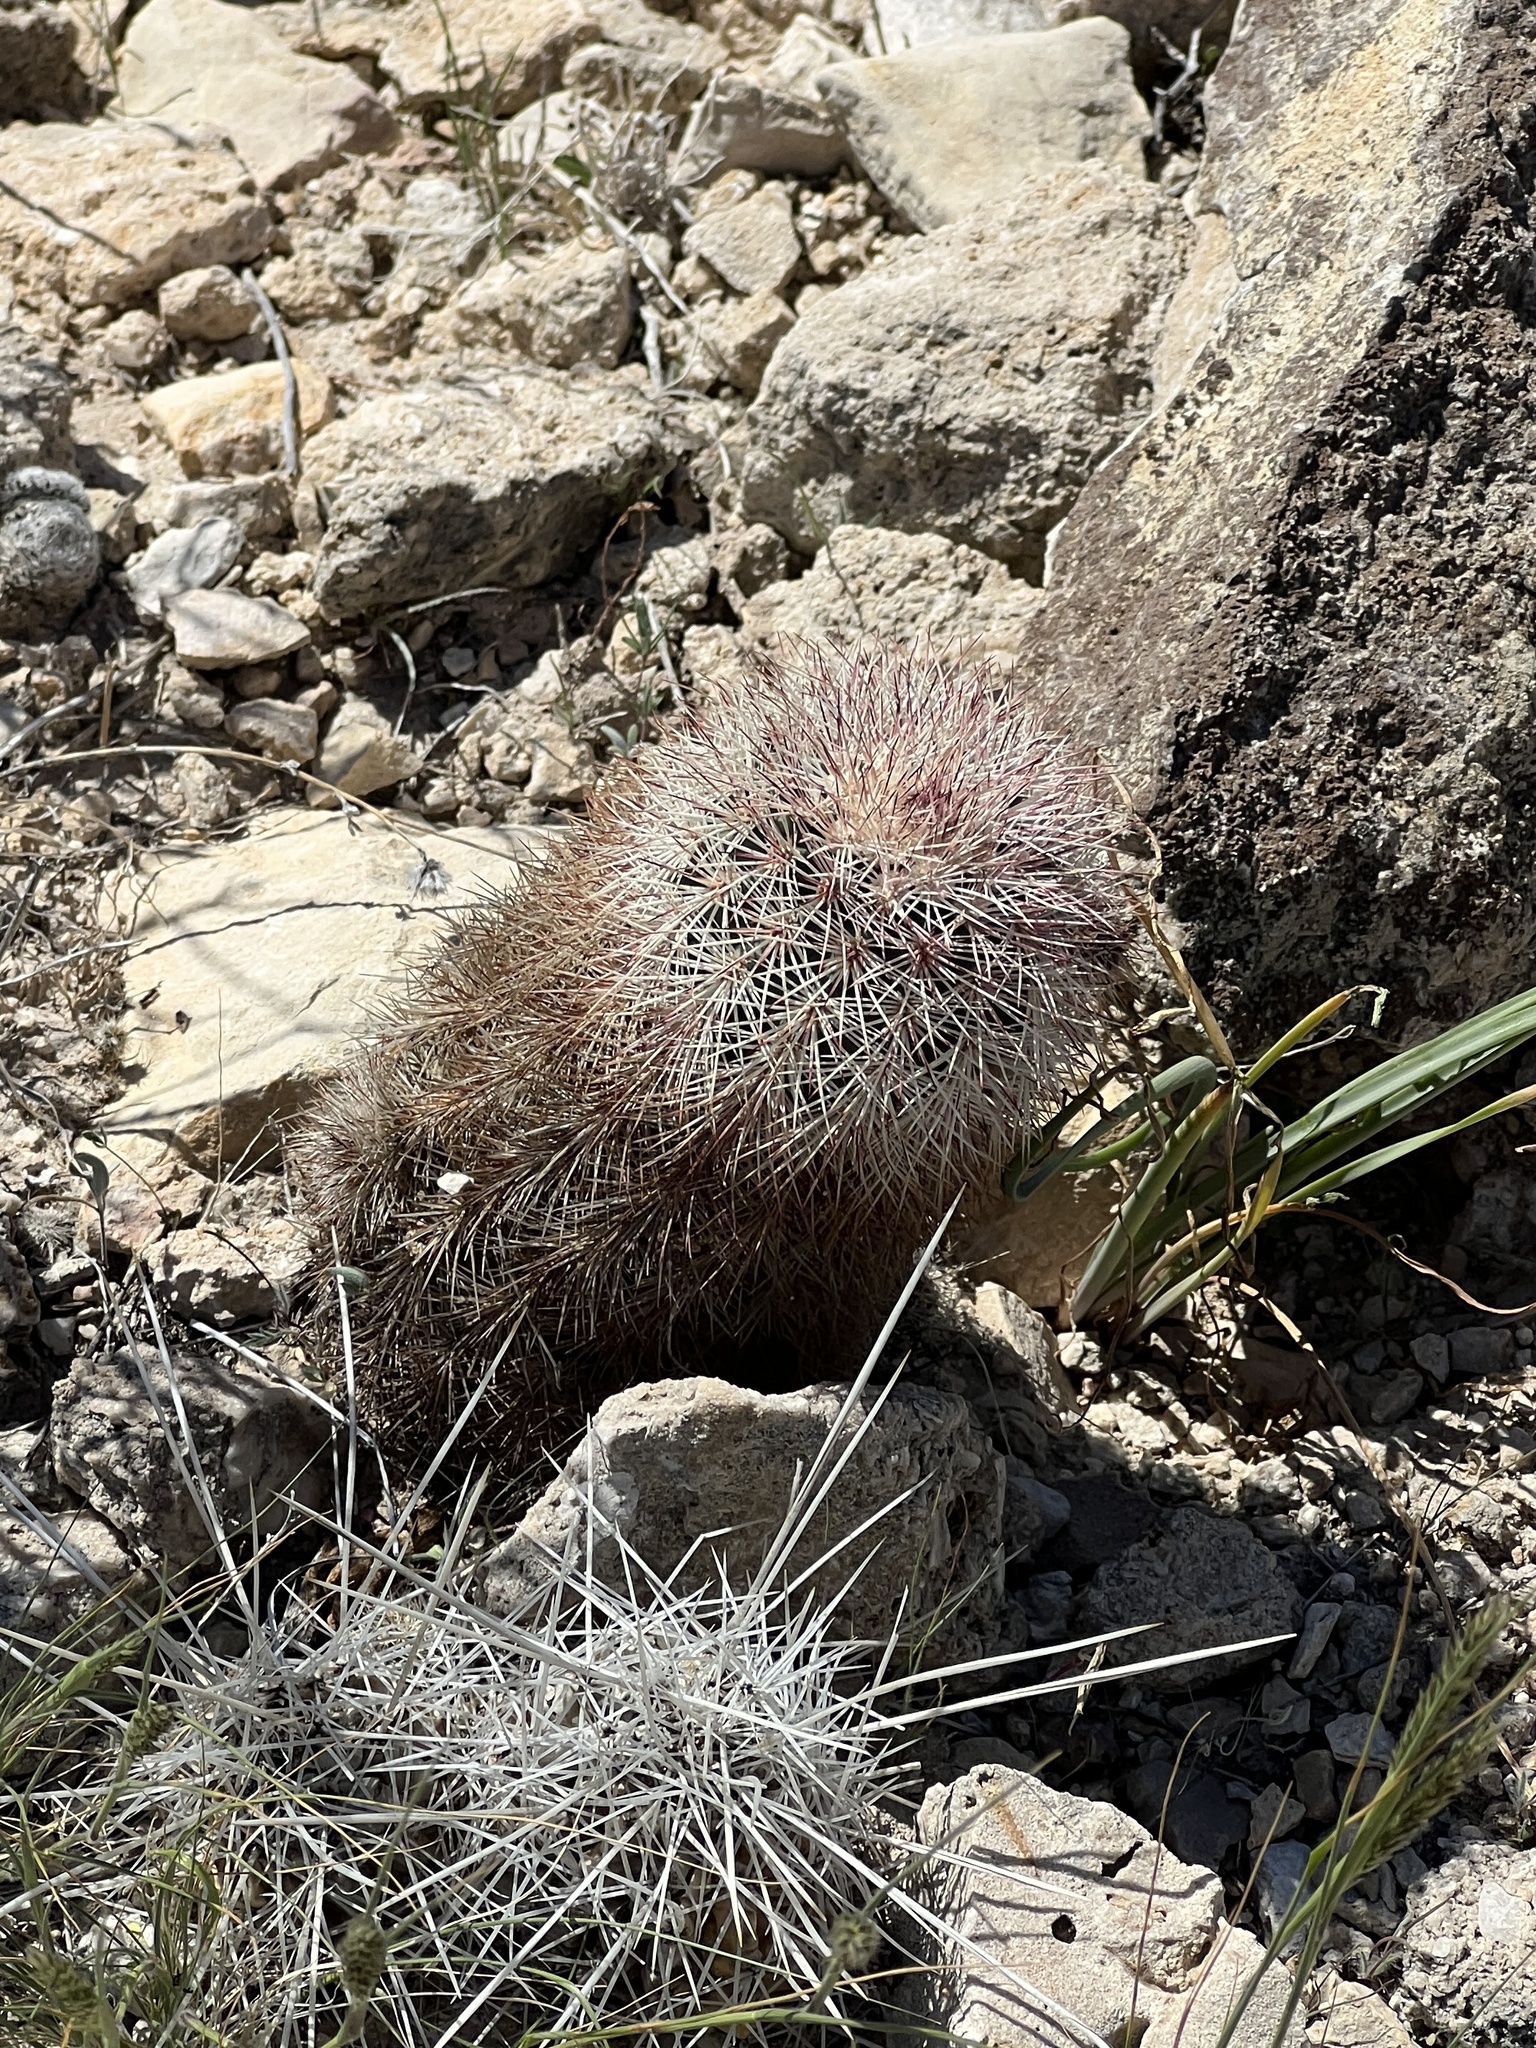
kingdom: Plantae
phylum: Tracheophyta
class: Magnoliopsida
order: Caryophyllales
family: Cactaceae
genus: Echinocereus
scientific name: Echinocereus dasyacanthus
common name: Spiny hedgehog cactus
